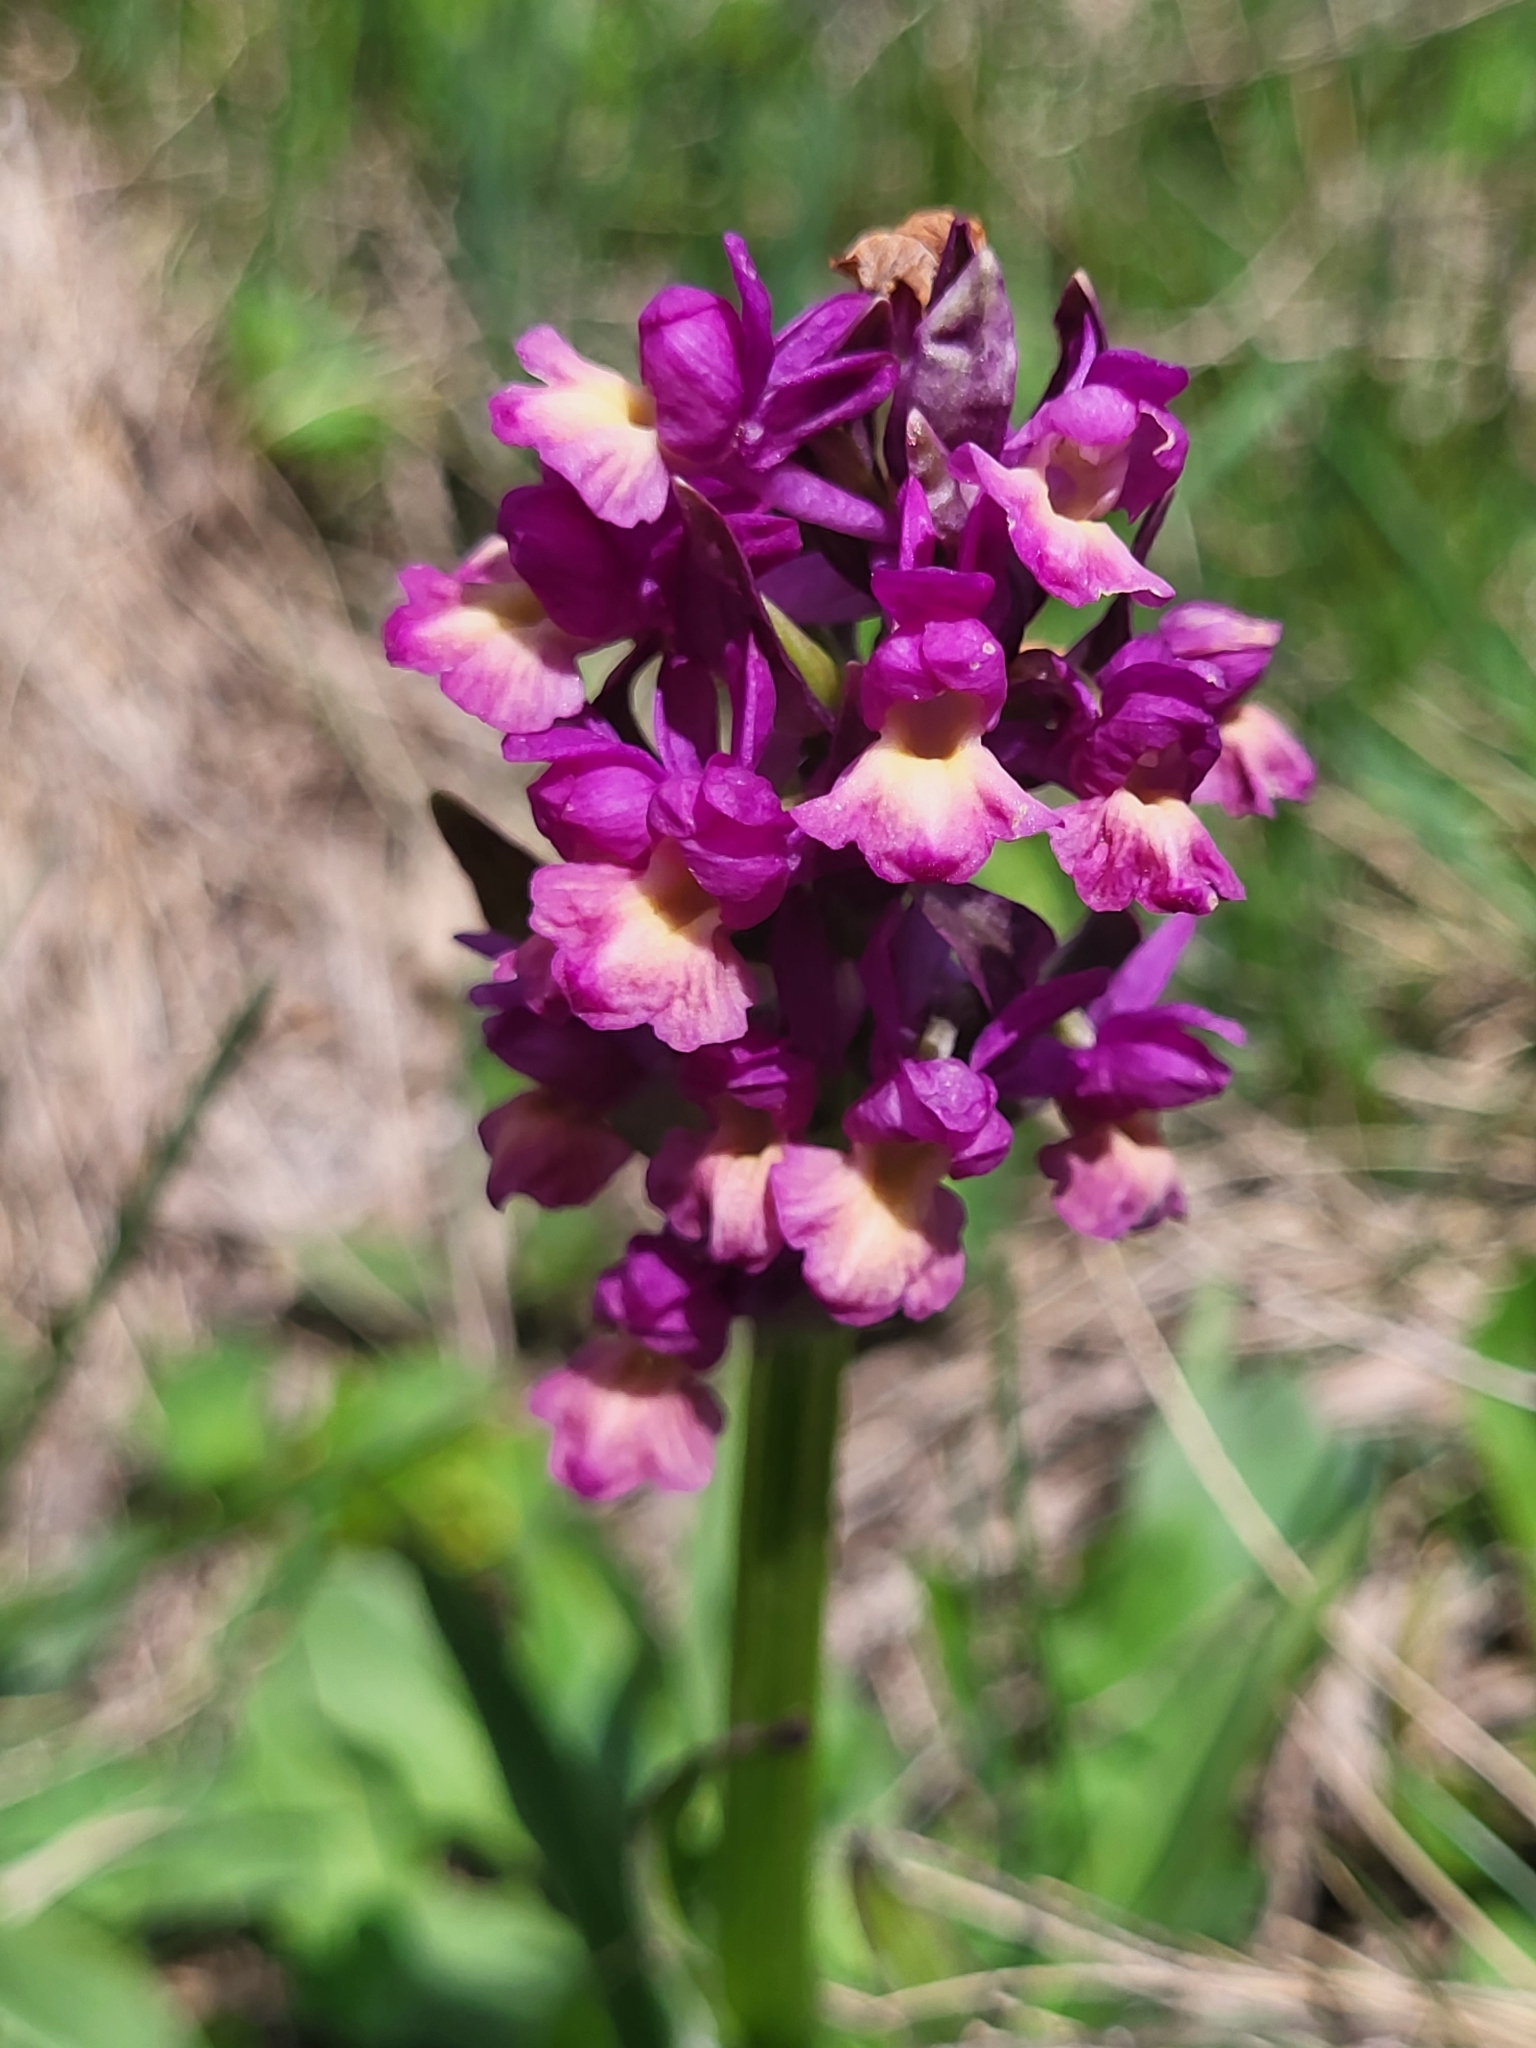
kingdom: Plantae
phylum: Tracheophyta
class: Liliopsida
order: Asparagales
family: Orchidaceae
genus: Dactylorhiza
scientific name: Dactylorhiza romana
